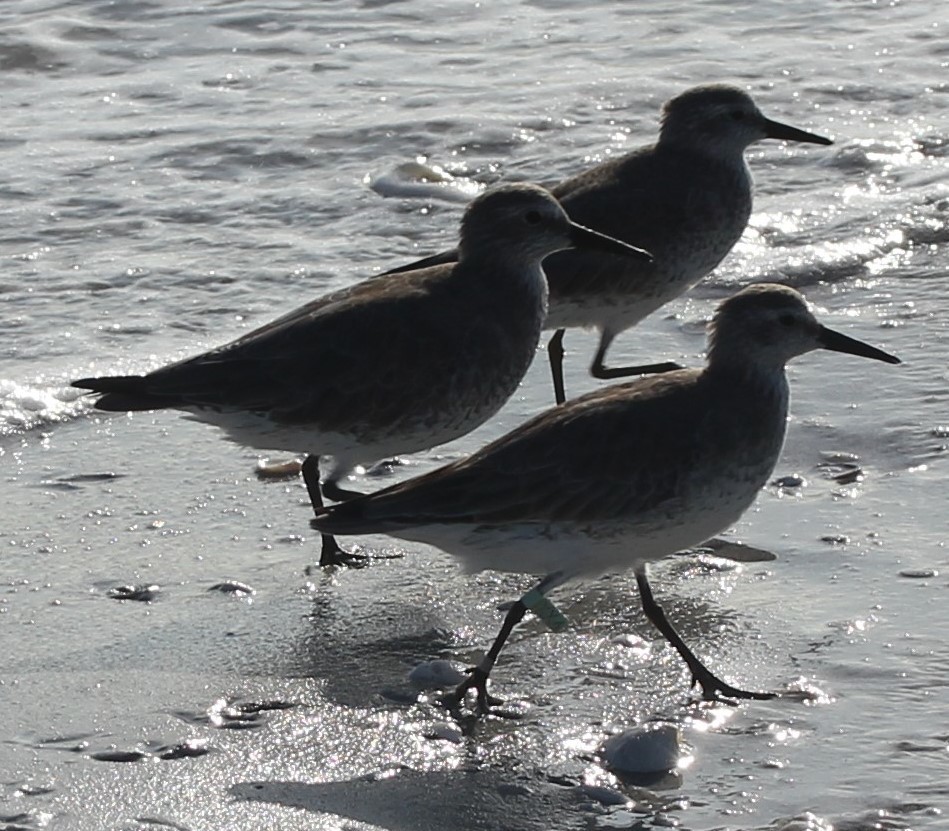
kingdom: Animalia
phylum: Chordata
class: Aves
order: Charadriiformes
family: Scolopacidae
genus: Calidris
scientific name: Calidris canutus
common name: Red knot
